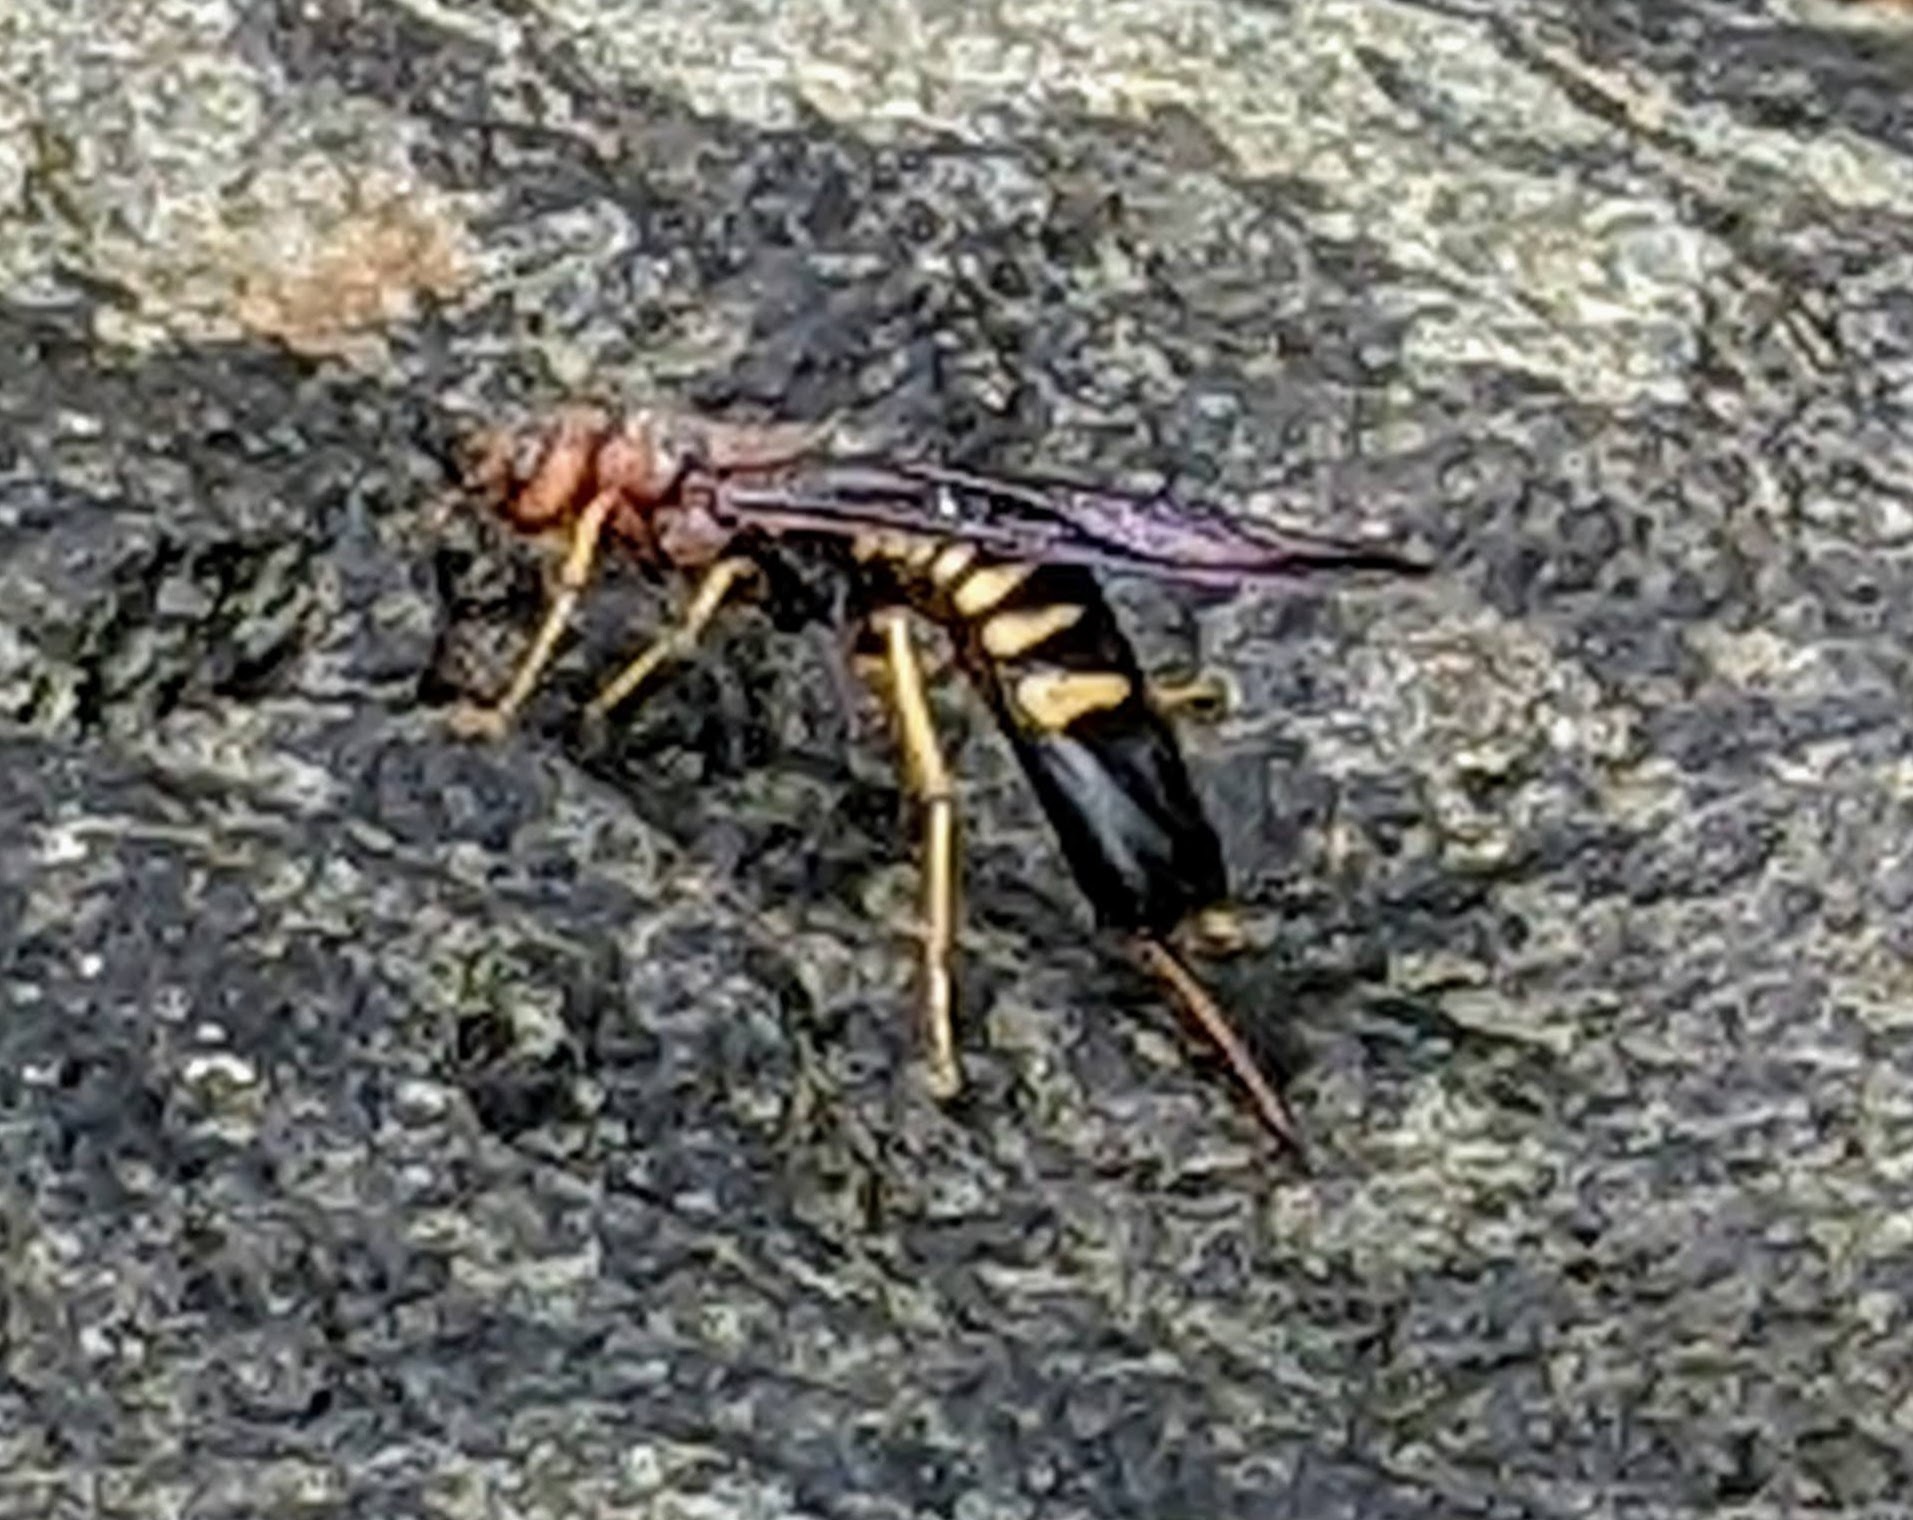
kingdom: Animalia
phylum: Arthropoda
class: Insecta
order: Hymenoptera
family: Siricidae
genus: Tremex
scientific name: Tremex columba
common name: Wasp
